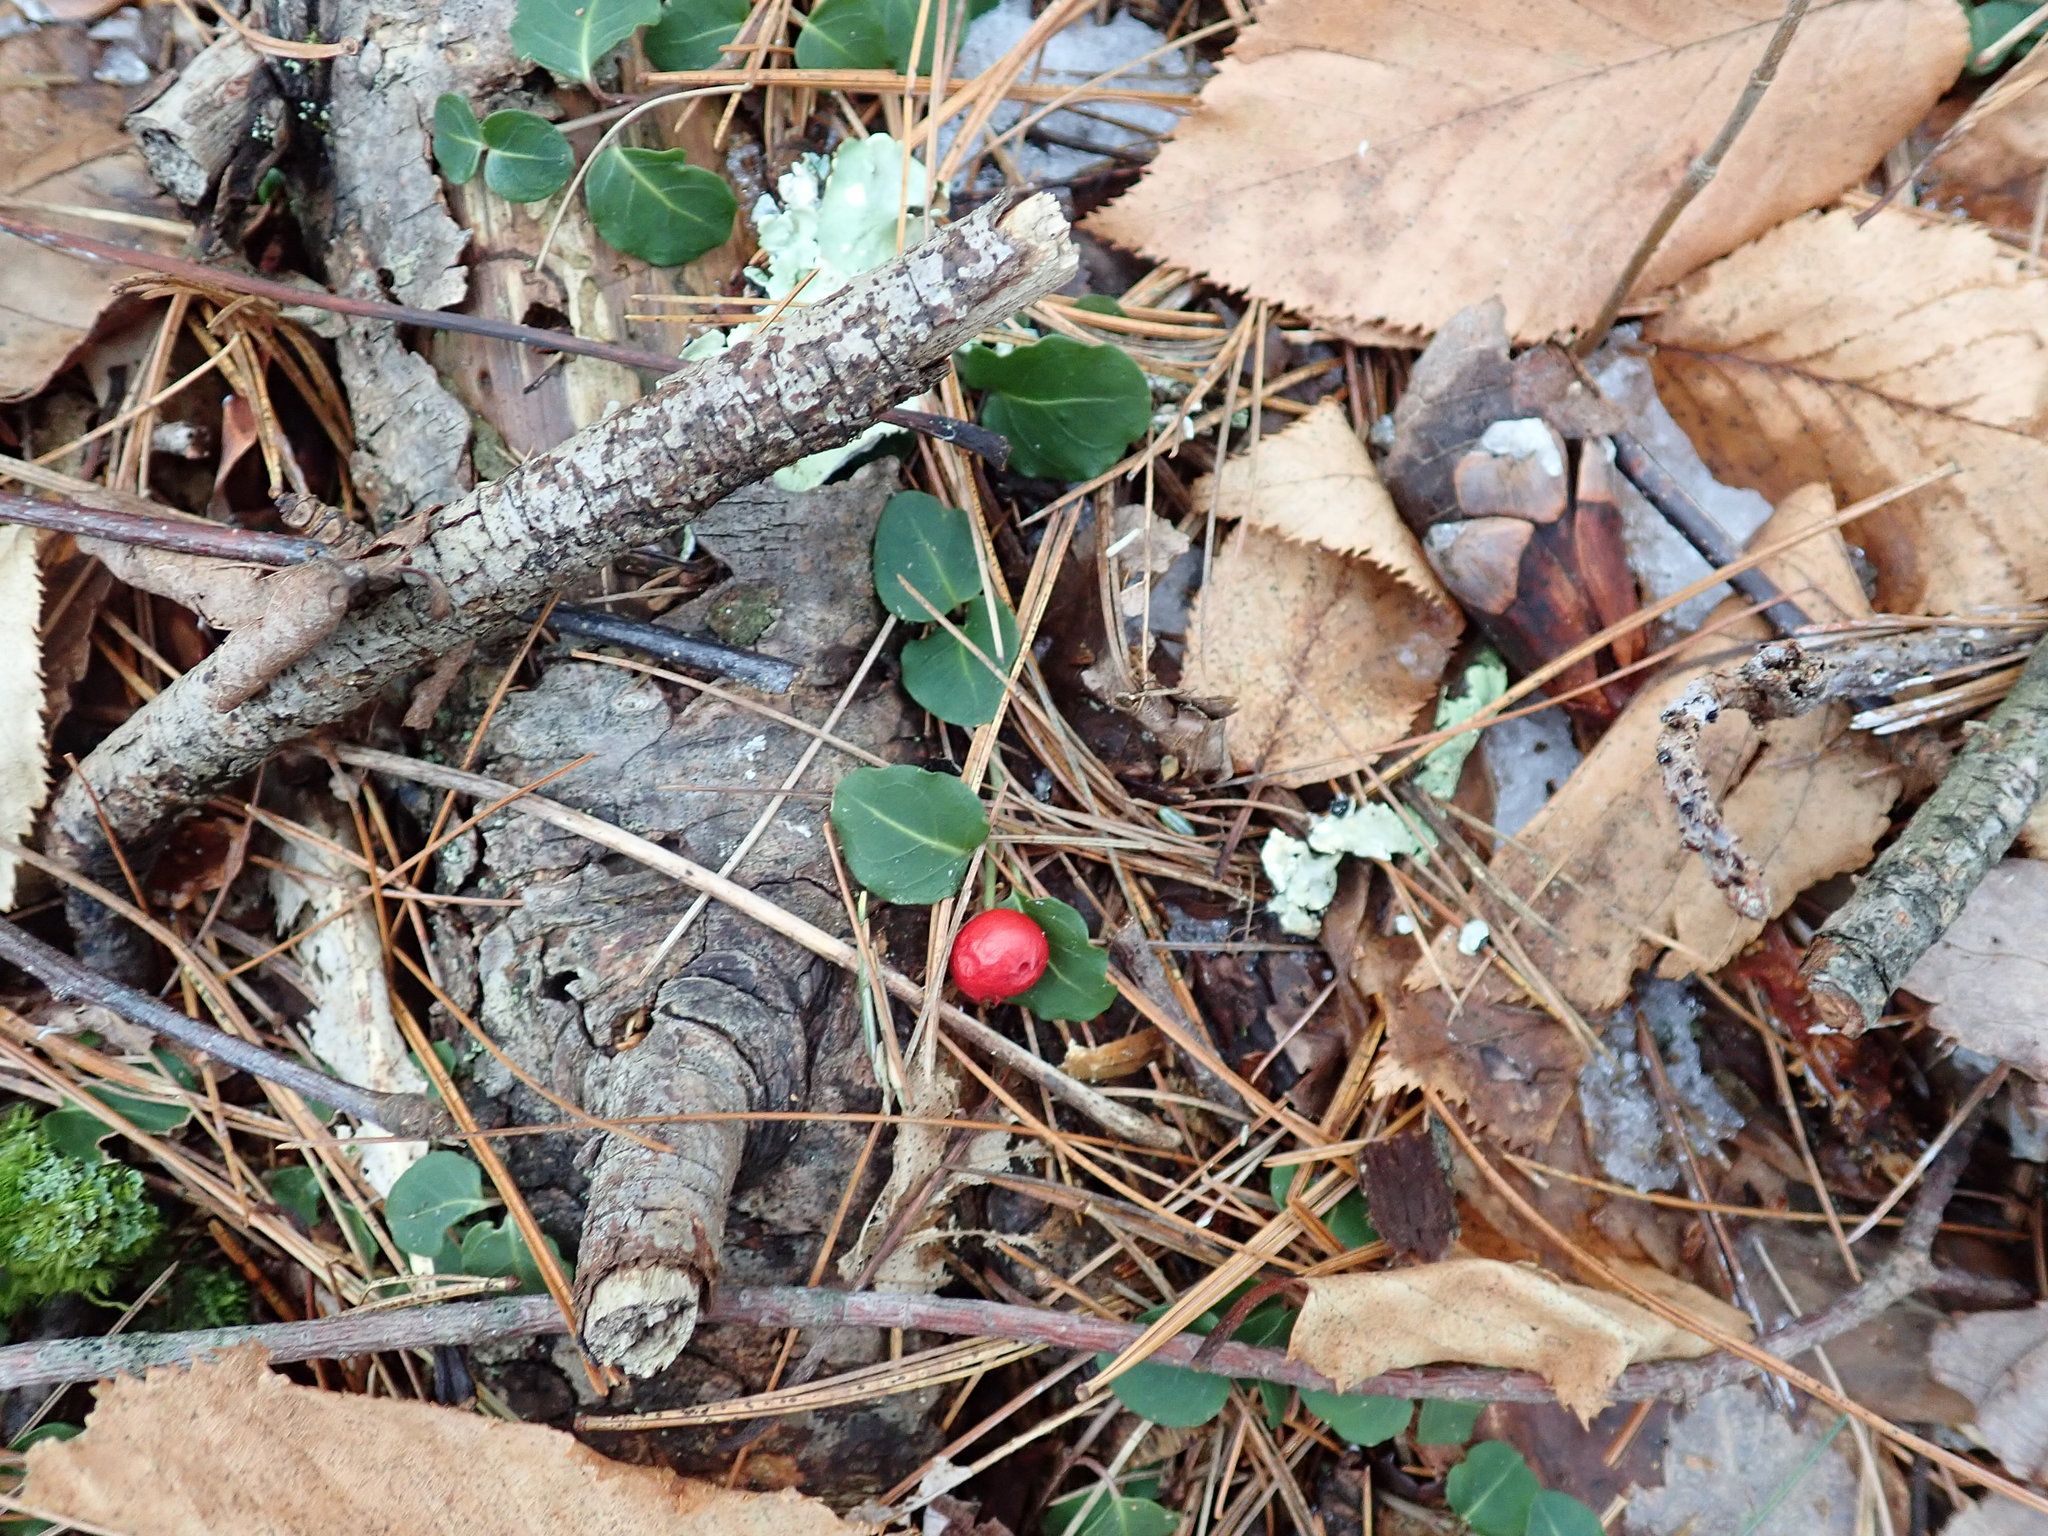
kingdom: Plantae
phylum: Tracheophyta
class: Magnoliopsida
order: Gentianales
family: Rubiaceae
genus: Mitchella
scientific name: Mitchella repens
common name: Partridge-berry
